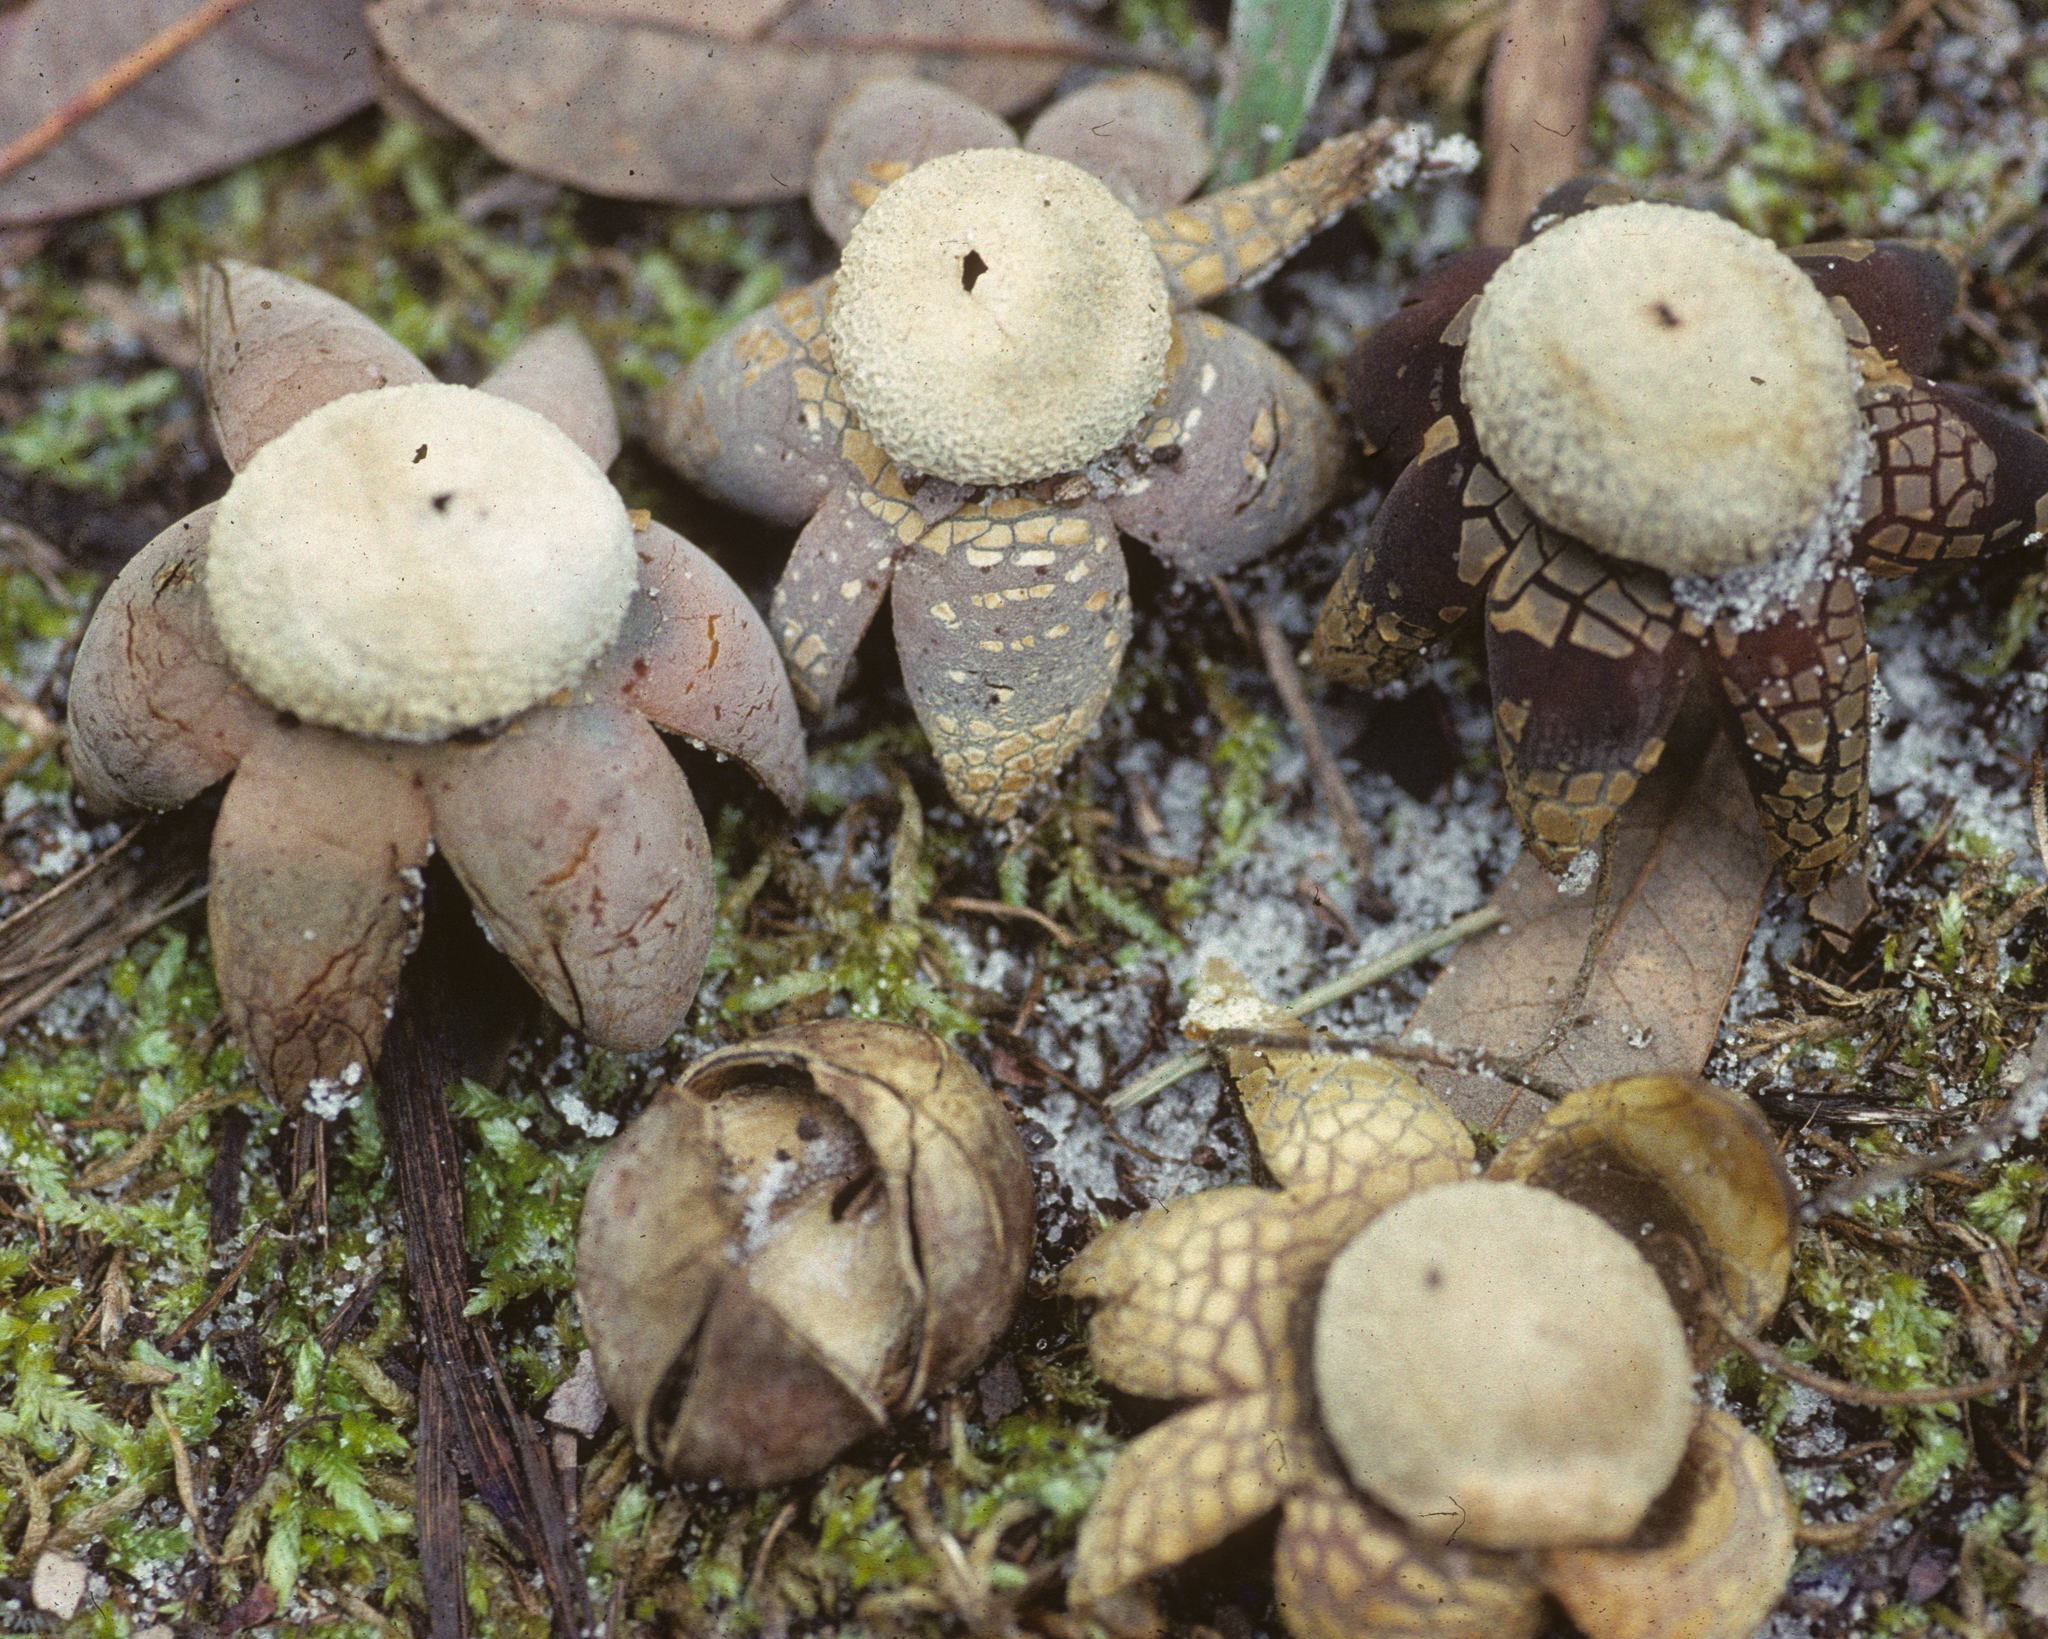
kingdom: Fungi
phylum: Basidiomycota
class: Agaricomycetes
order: Boletales
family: Diplocystidiaceae
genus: Astraeus
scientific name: Astraeus hygrometricus
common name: Barometer earthstar
